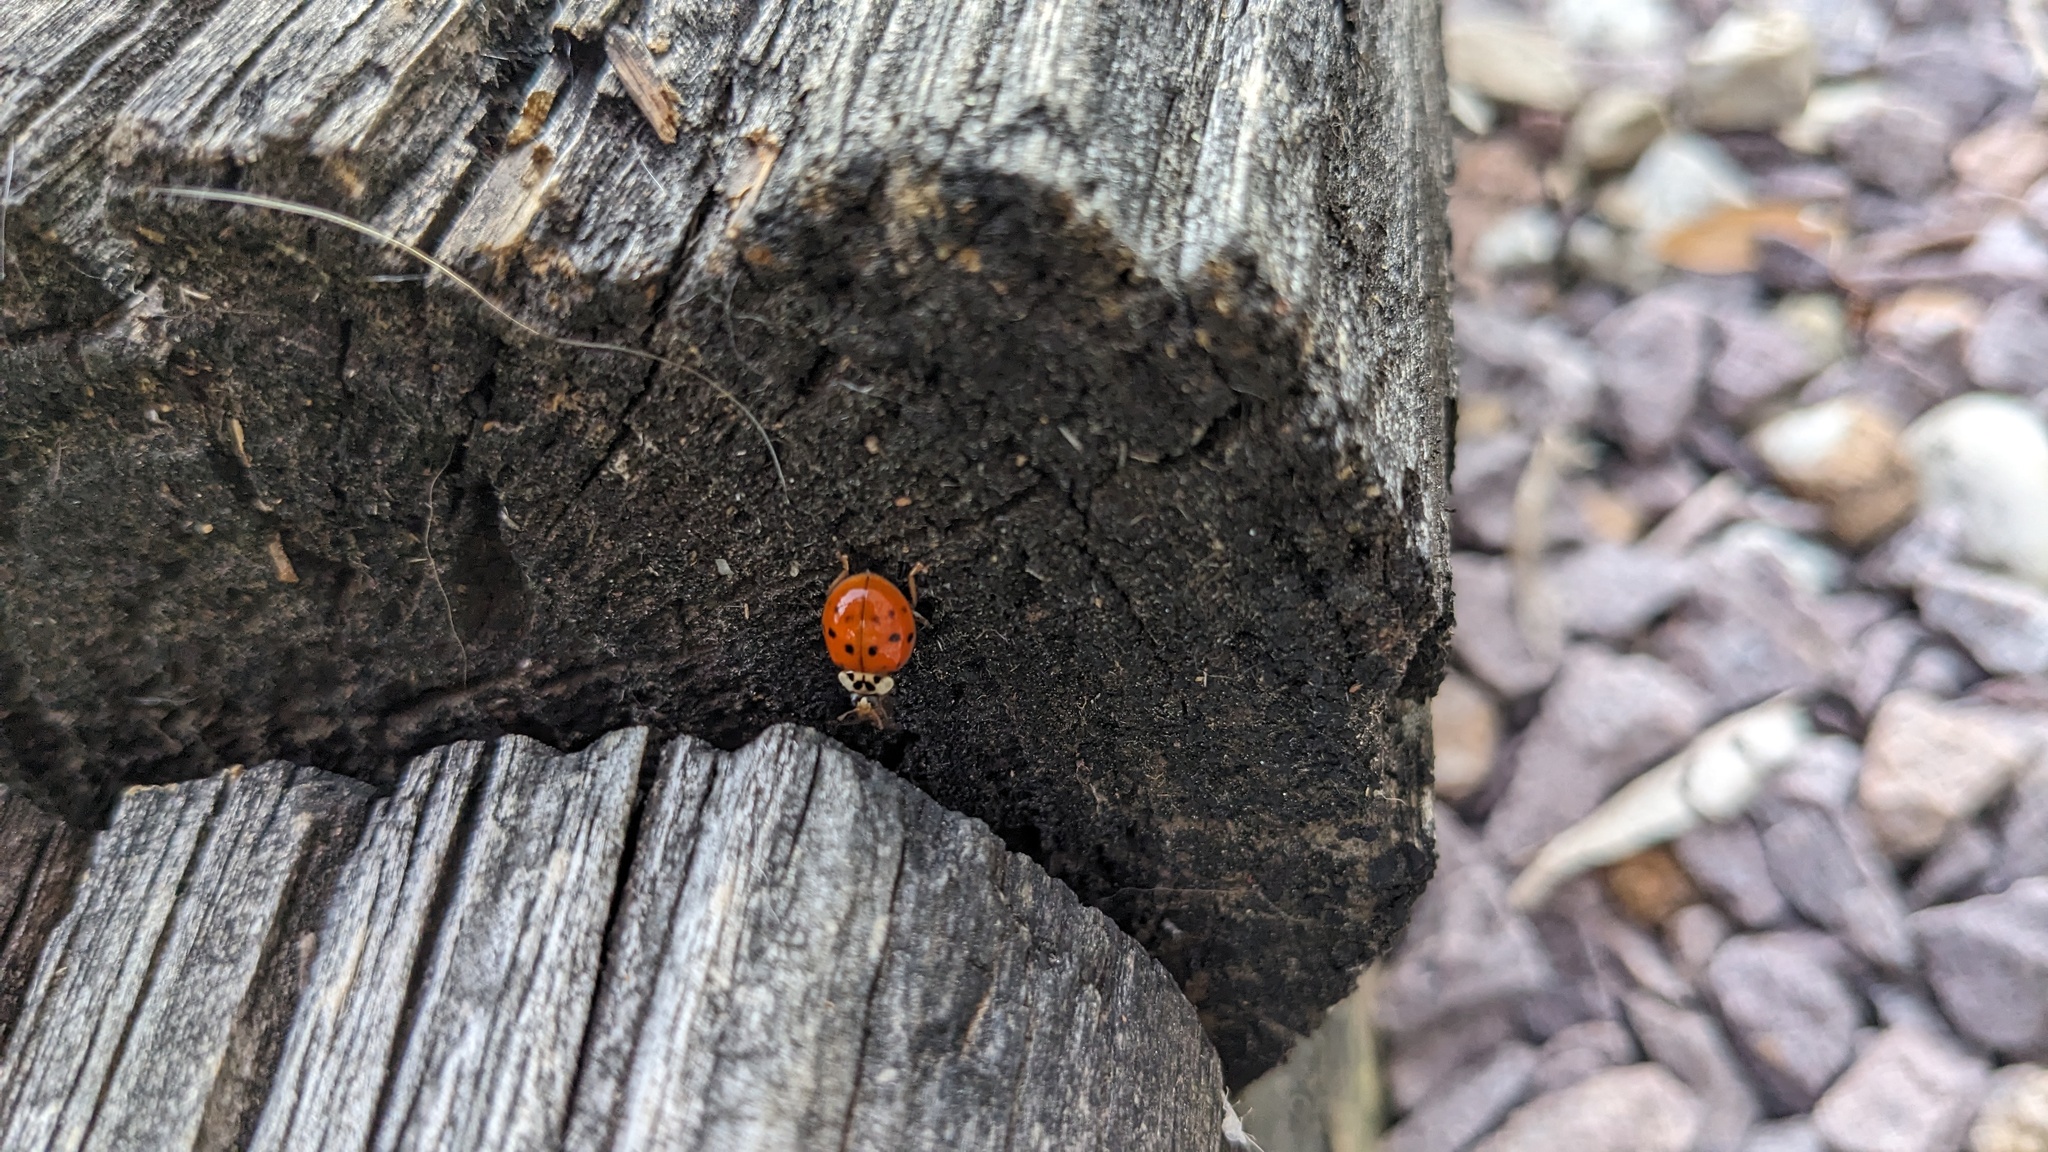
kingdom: Animalia
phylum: Arthropoda
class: Insecta
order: Coleoptera
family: Coccinellidae
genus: Harmonia
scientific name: Harmonia axyridis
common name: Harlequin ladybird
